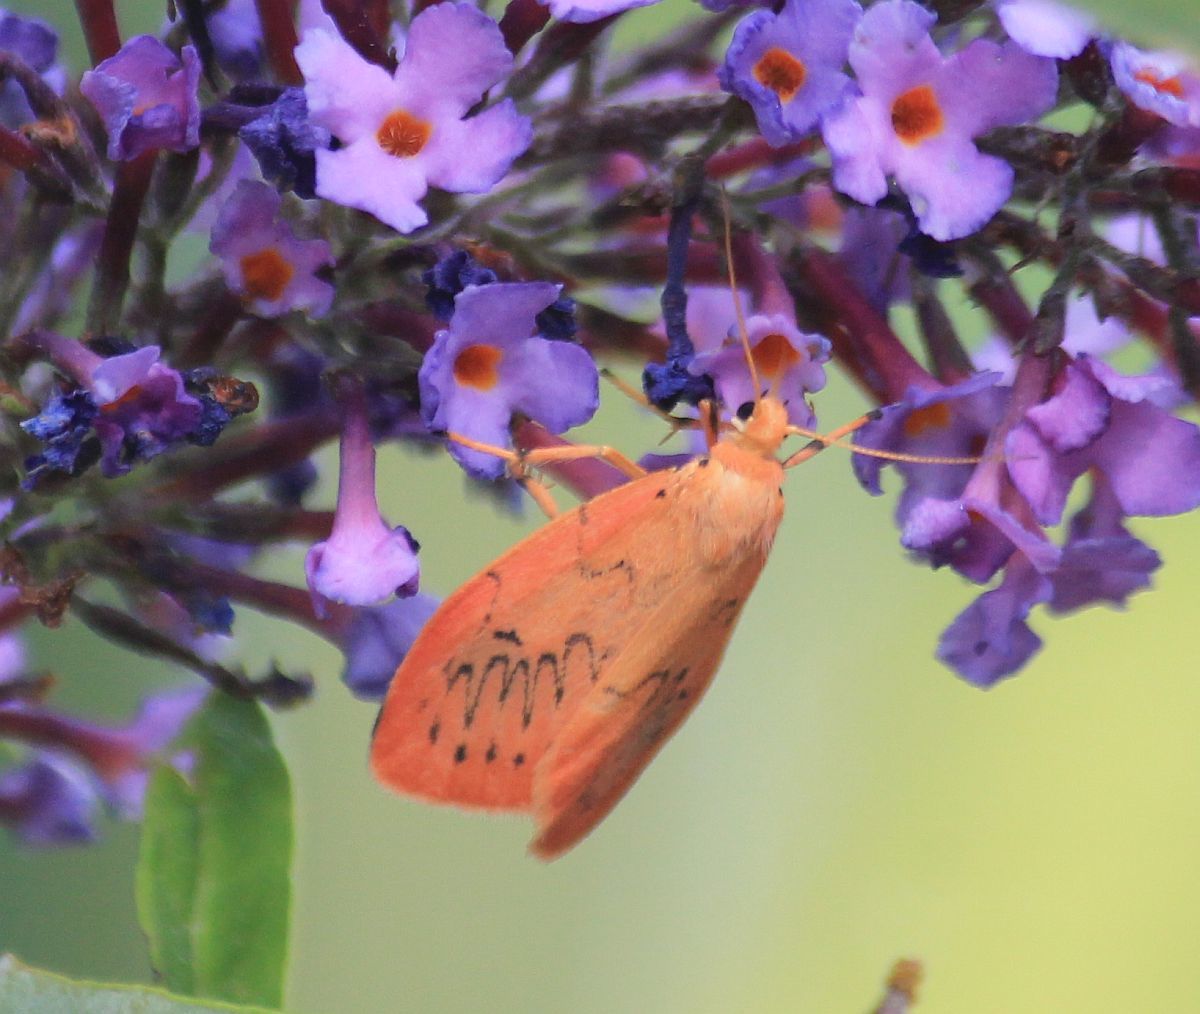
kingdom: Animalia
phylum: Arthropoda
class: Insecta
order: Lepidoptera
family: Erebidae
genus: Miltochrista
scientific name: Miltochrista miniata
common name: Rosy footman
